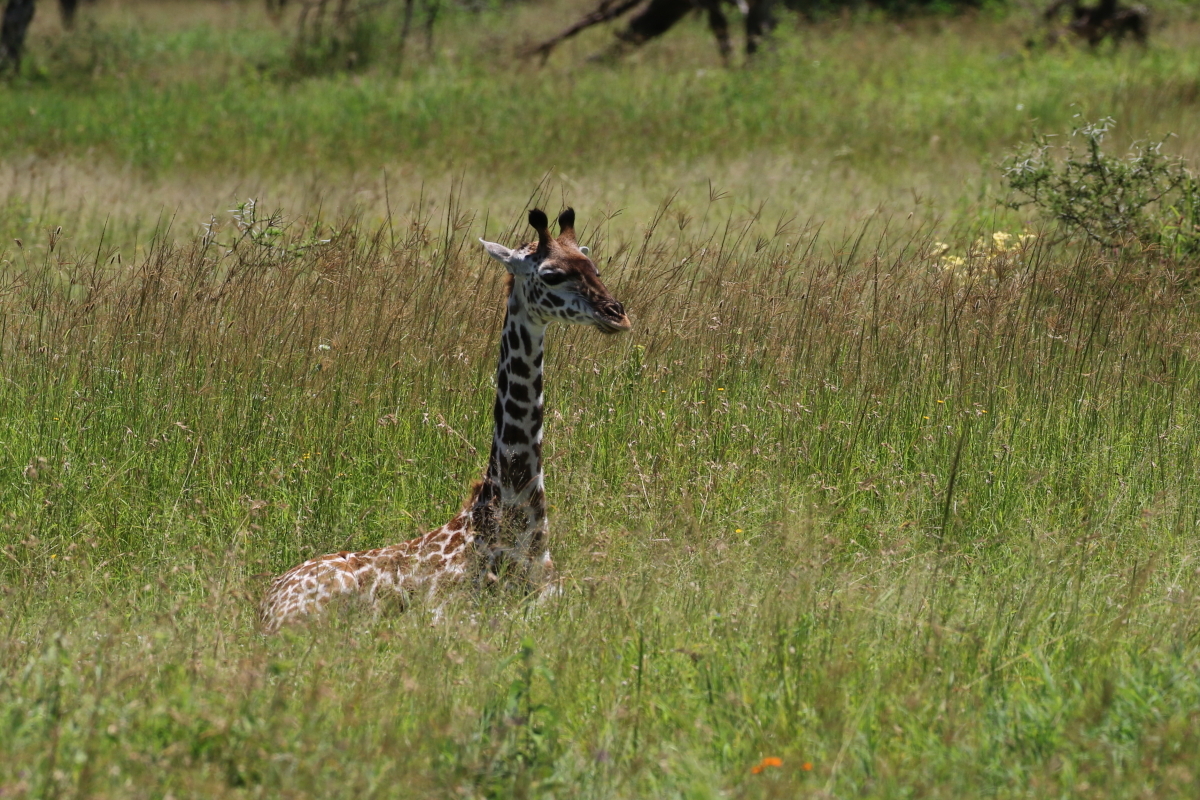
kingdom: Animalia
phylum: Chordata
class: Mammalia
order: Artiodactyla
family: Giraffidae
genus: Giraffa
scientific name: Giraffa tippelskirchi
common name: Masai giraffe
